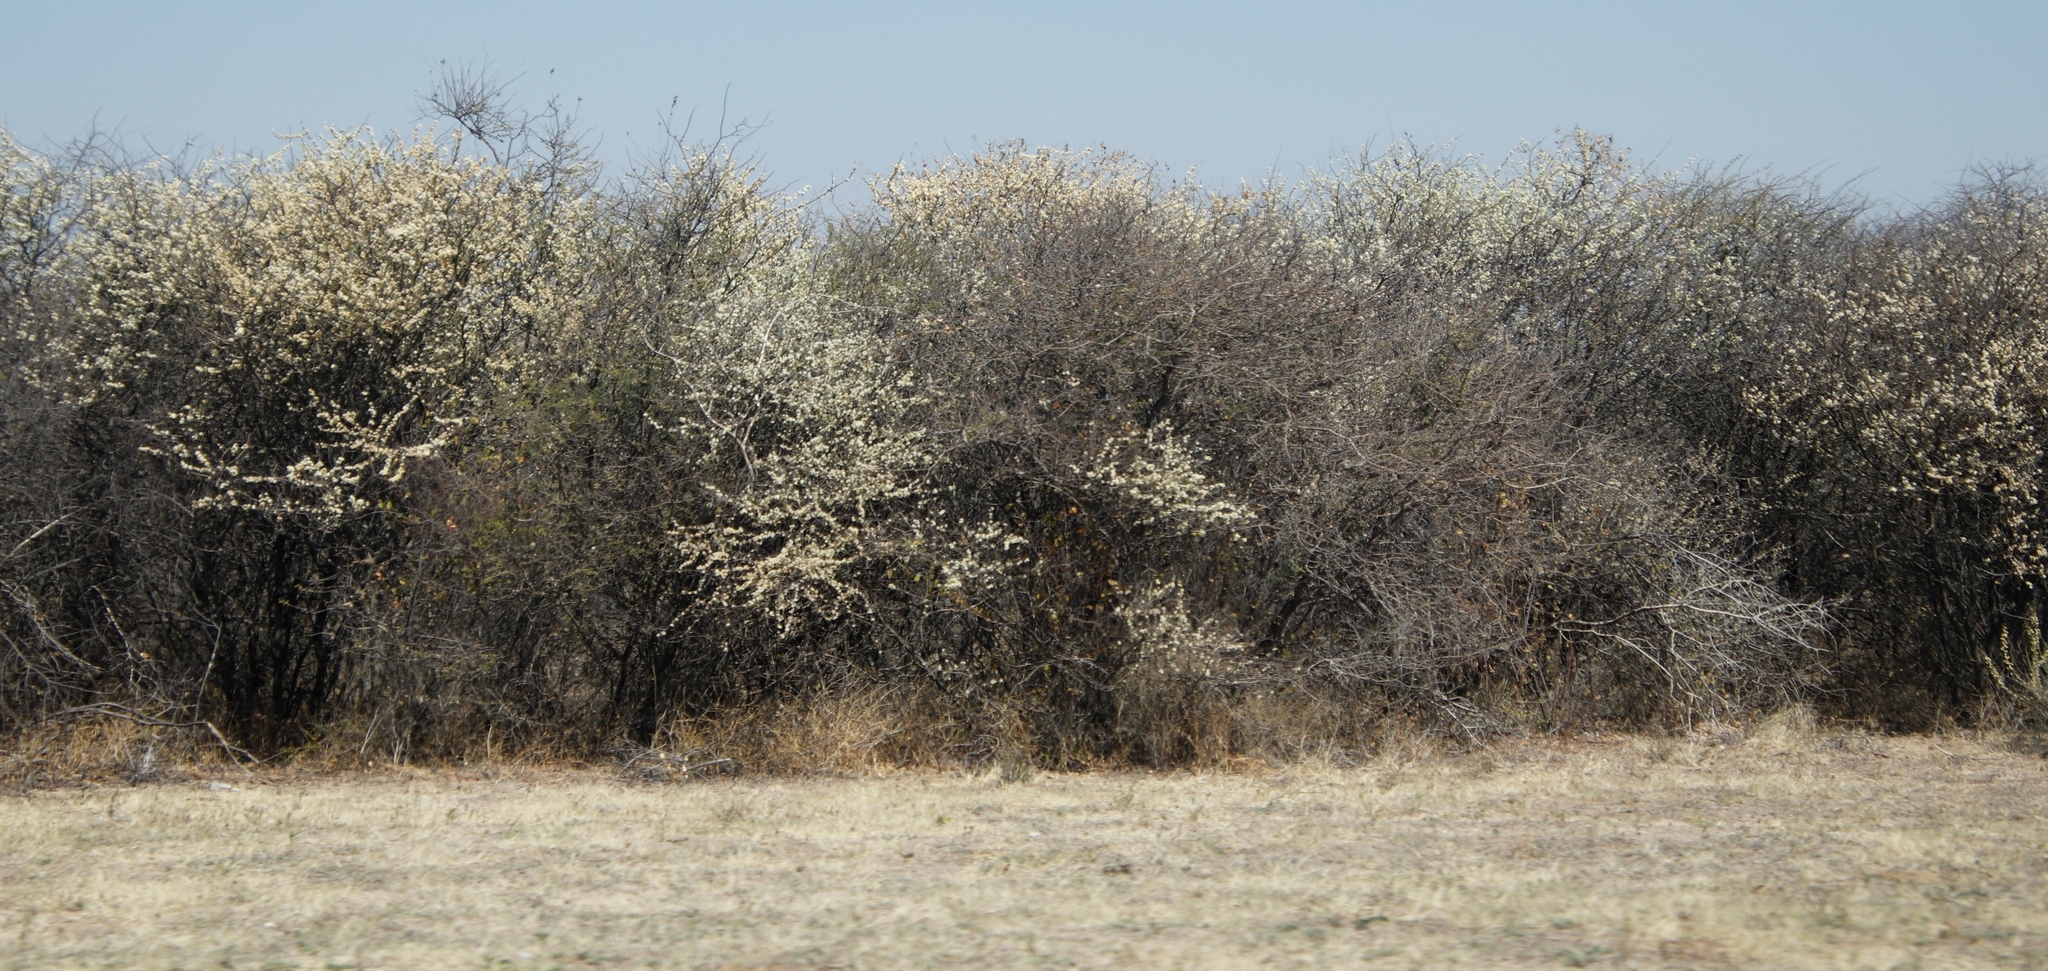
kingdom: Plantae
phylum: Tracheophyta
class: Magnoliopsida
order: Fabales
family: Fabaceae
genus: Senegalia
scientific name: Senegalia mellifera
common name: Hookthorn
